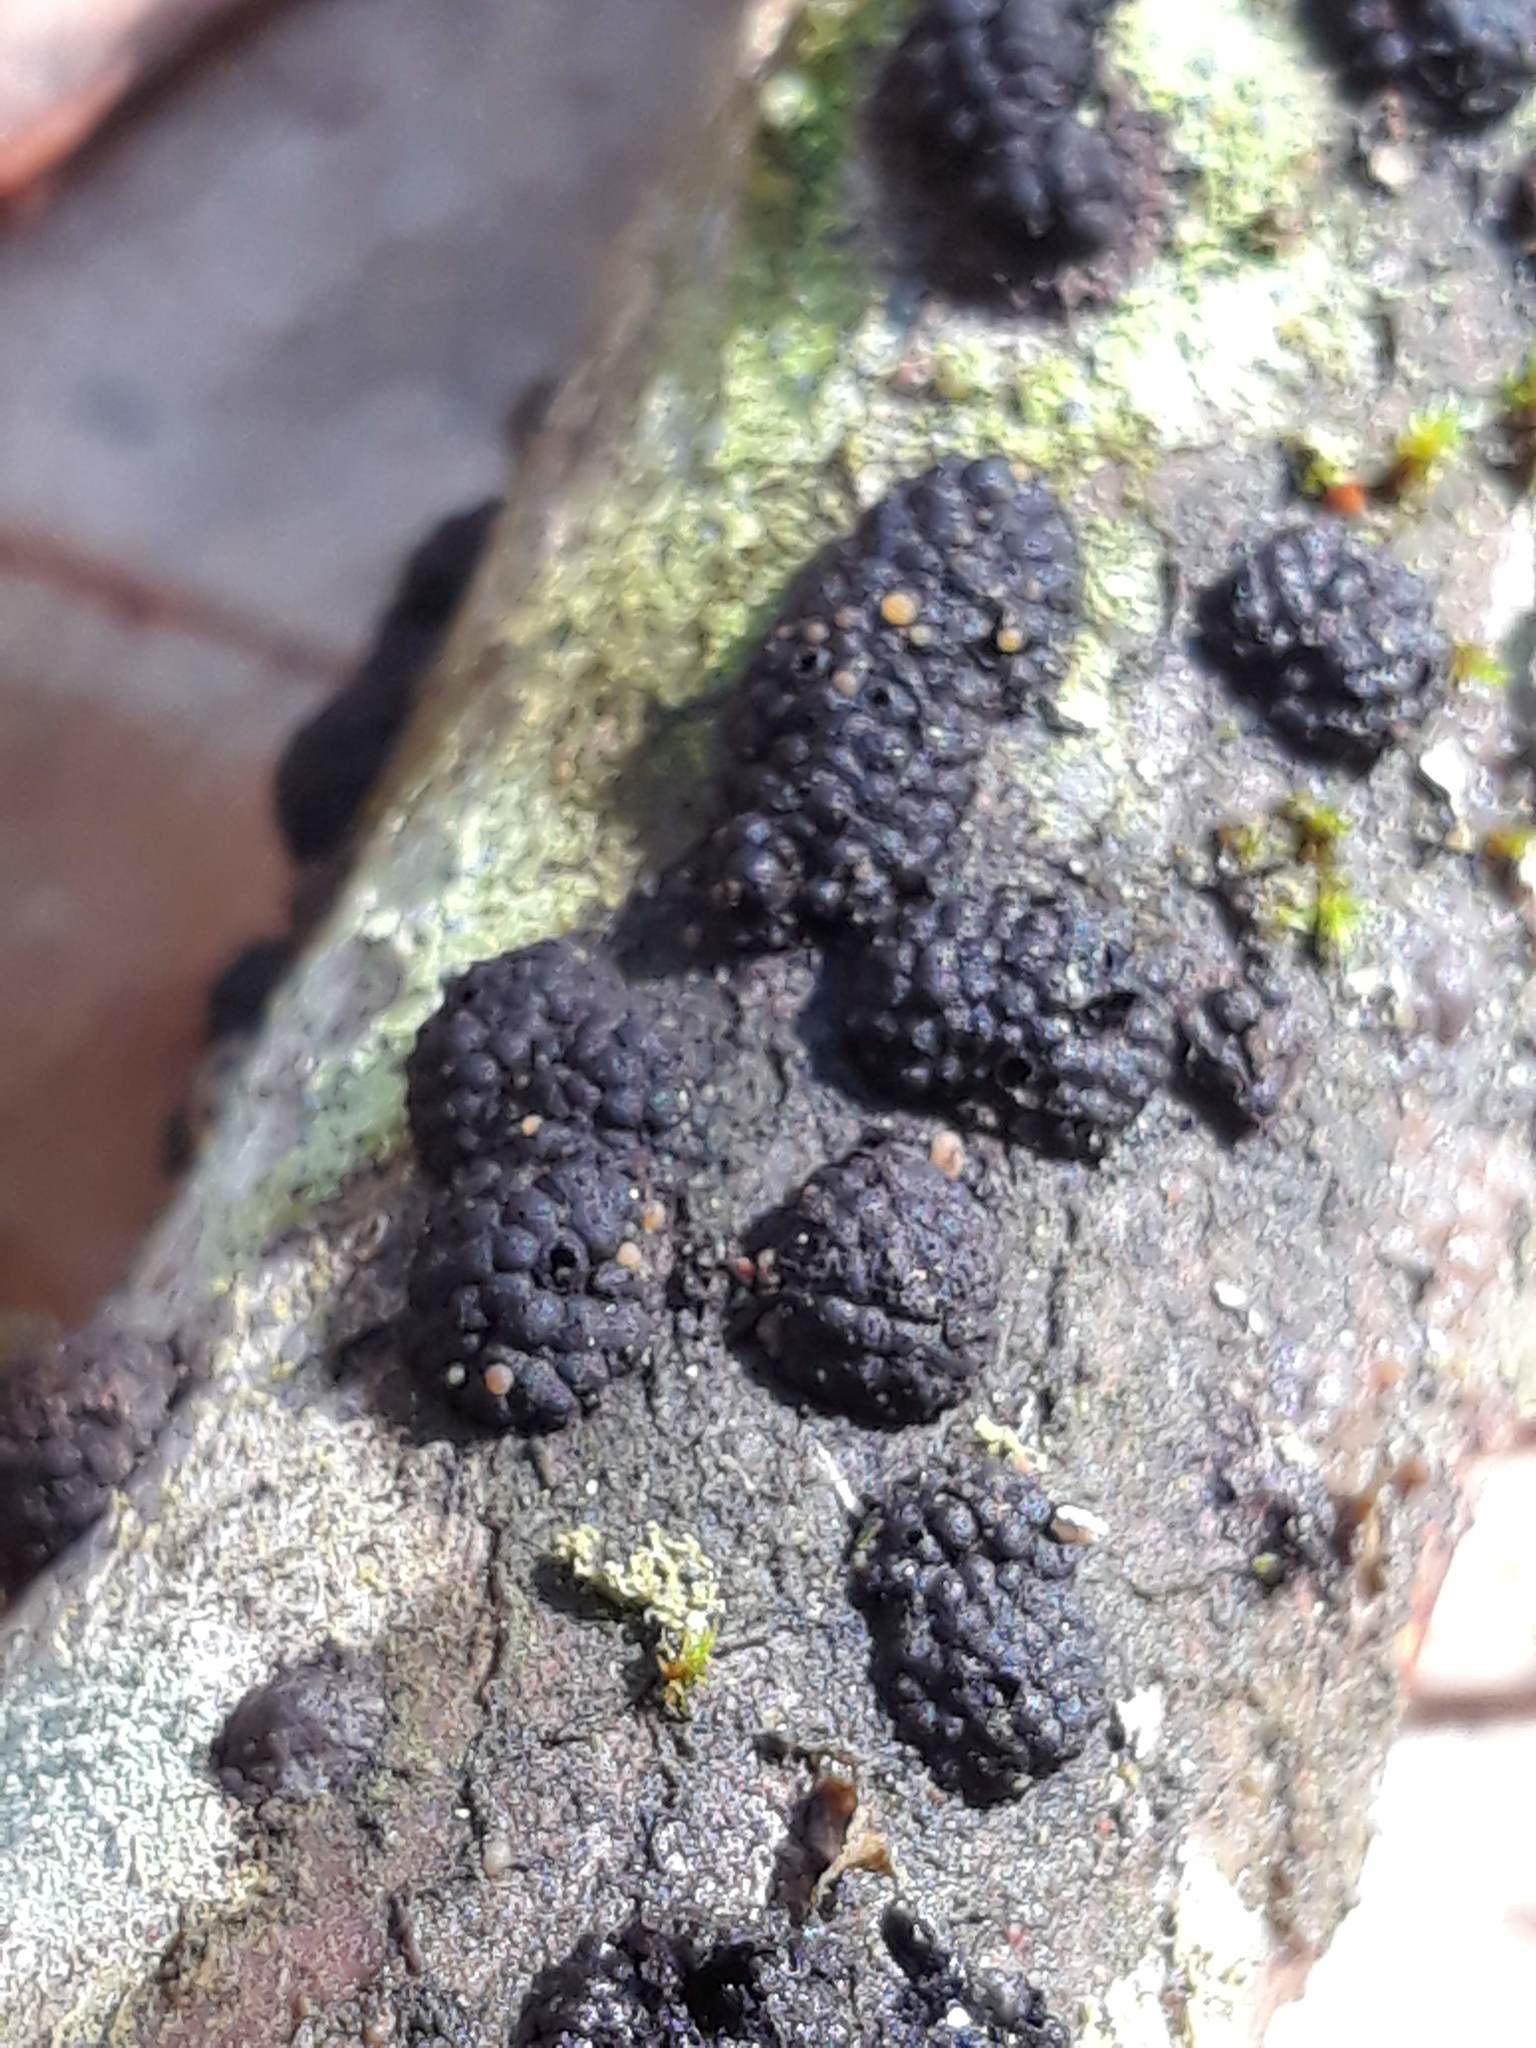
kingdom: Fungi
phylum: Ascomycota
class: Sordariomycetes
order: Xylariales
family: Hypoxylaceae
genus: Jackrogersella
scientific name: Jackrogersella cohaerens
